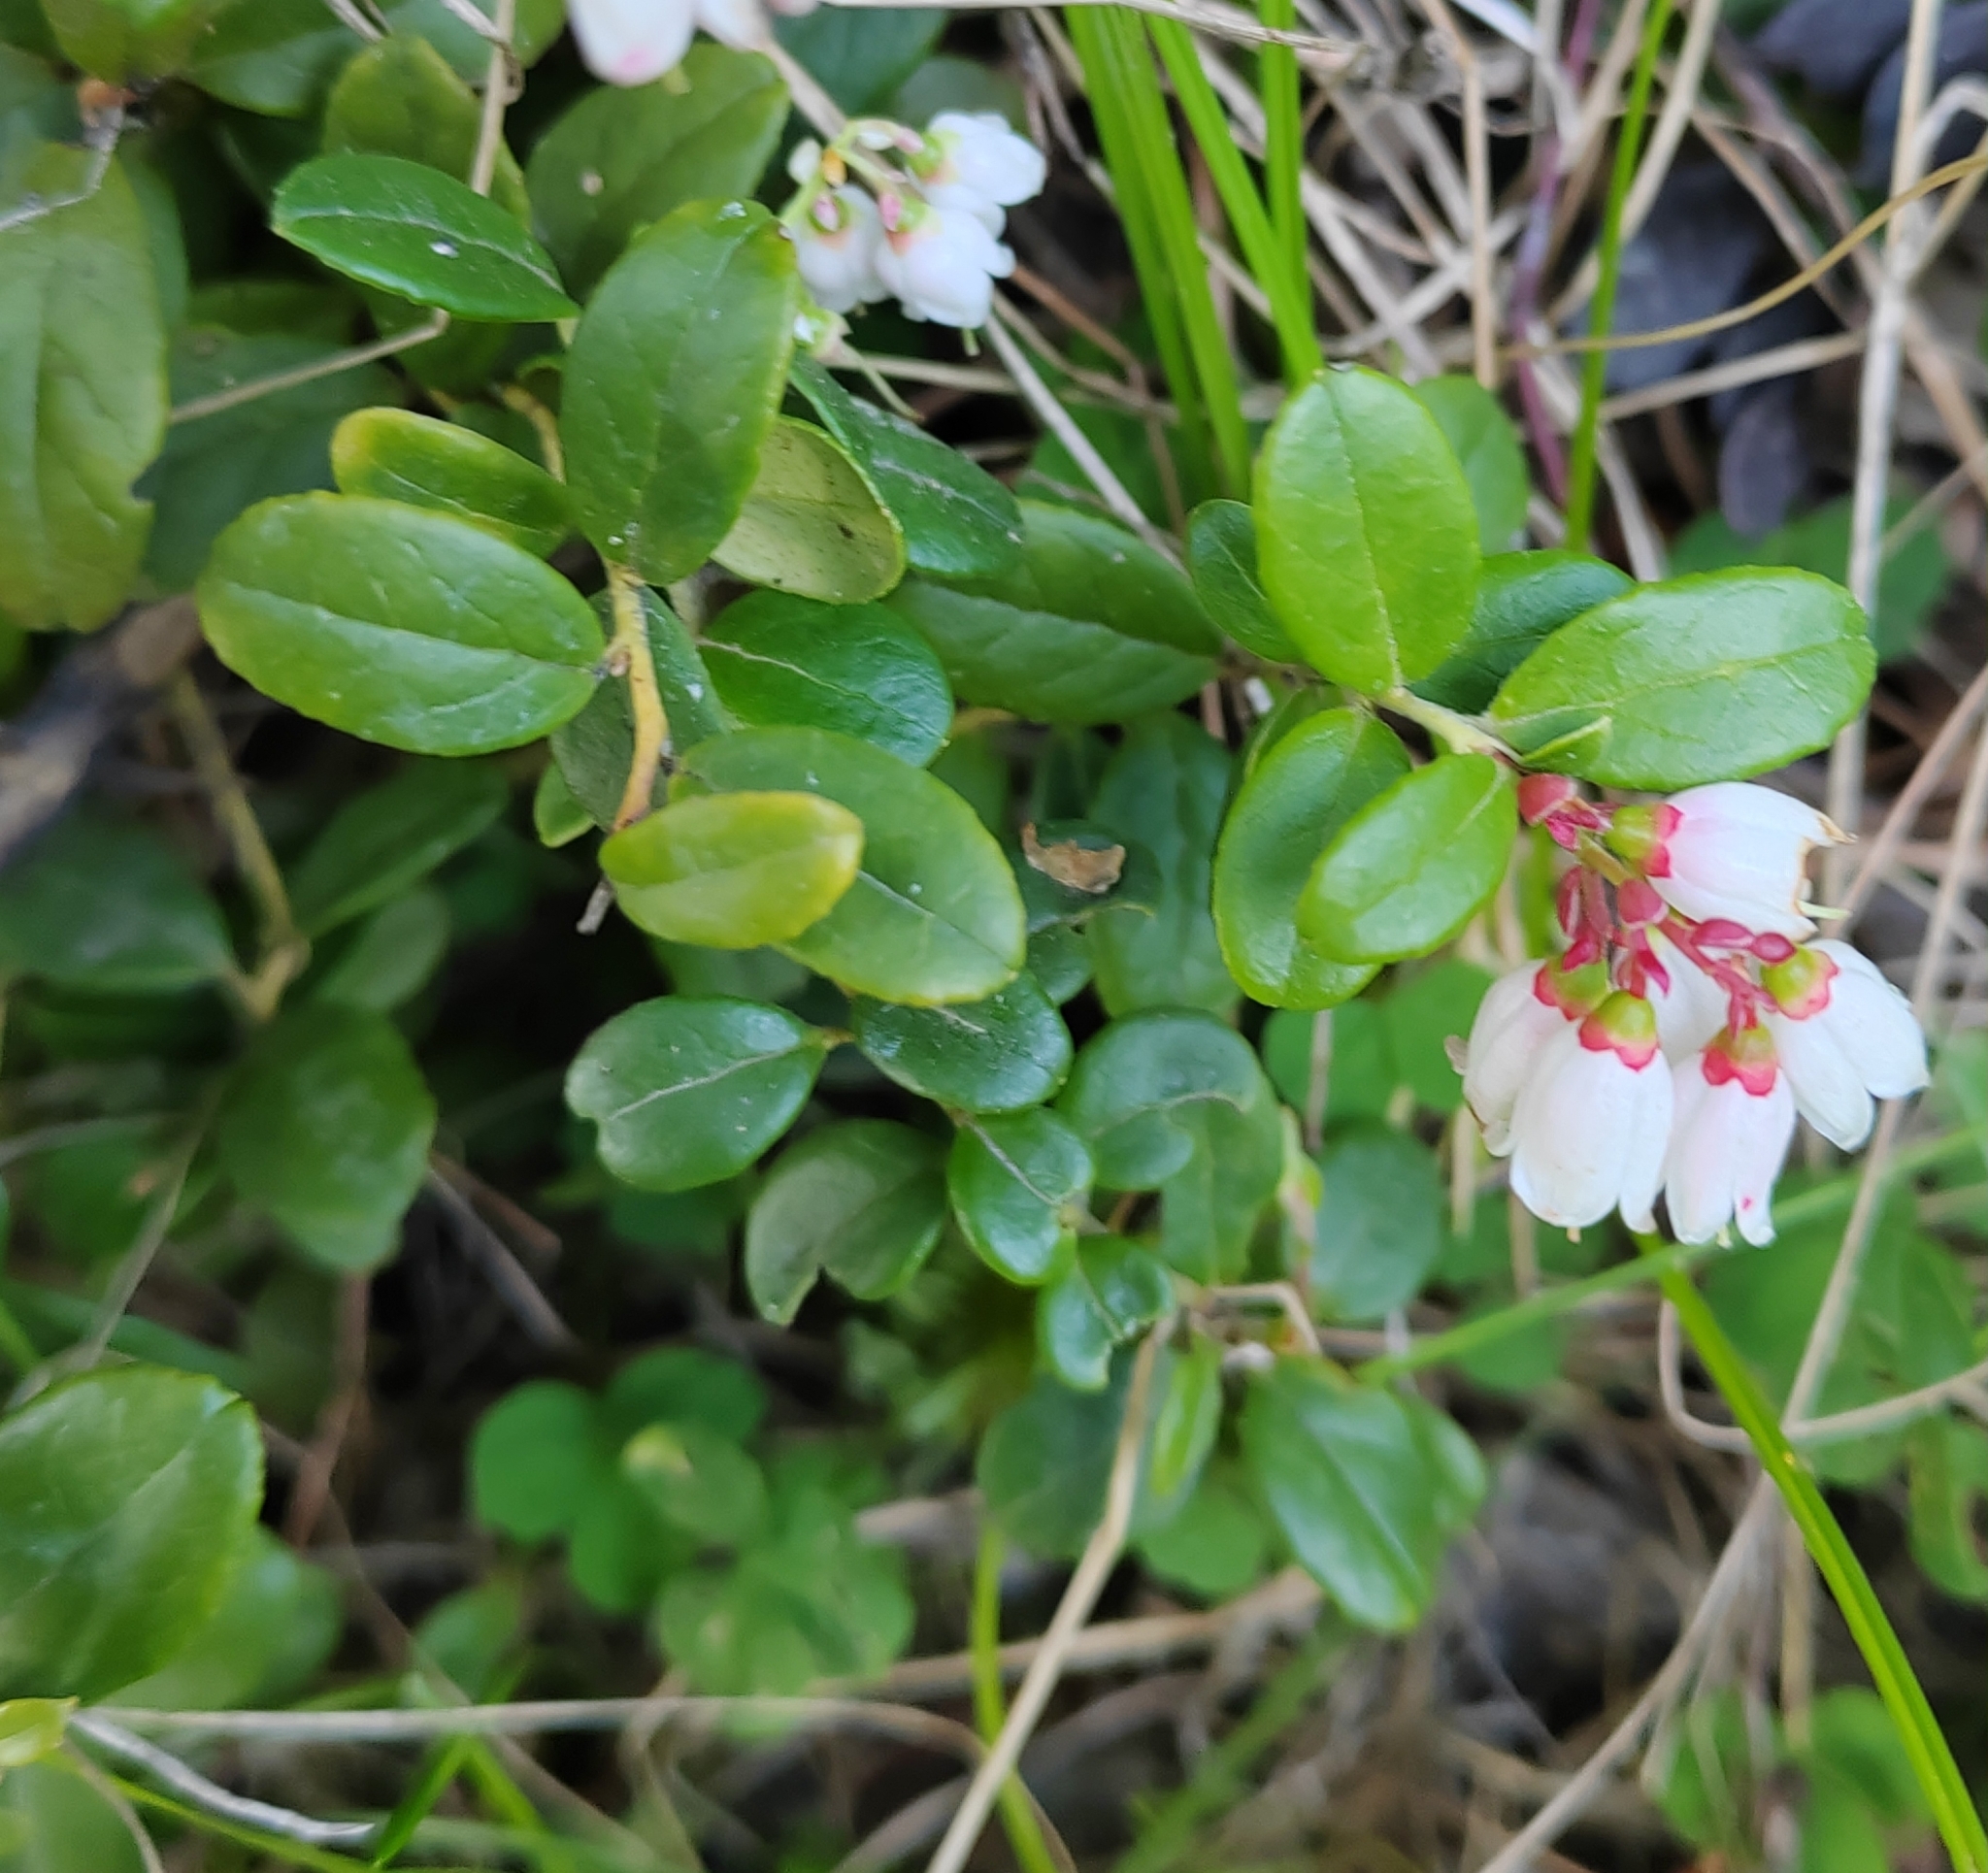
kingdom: Plantae
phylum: Tracheophyta
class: Magnoliopsida
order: Ericales
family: Ericaceae
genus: Vaccinium
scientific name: Vaccinium vitis-idaea
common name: Cowberry
